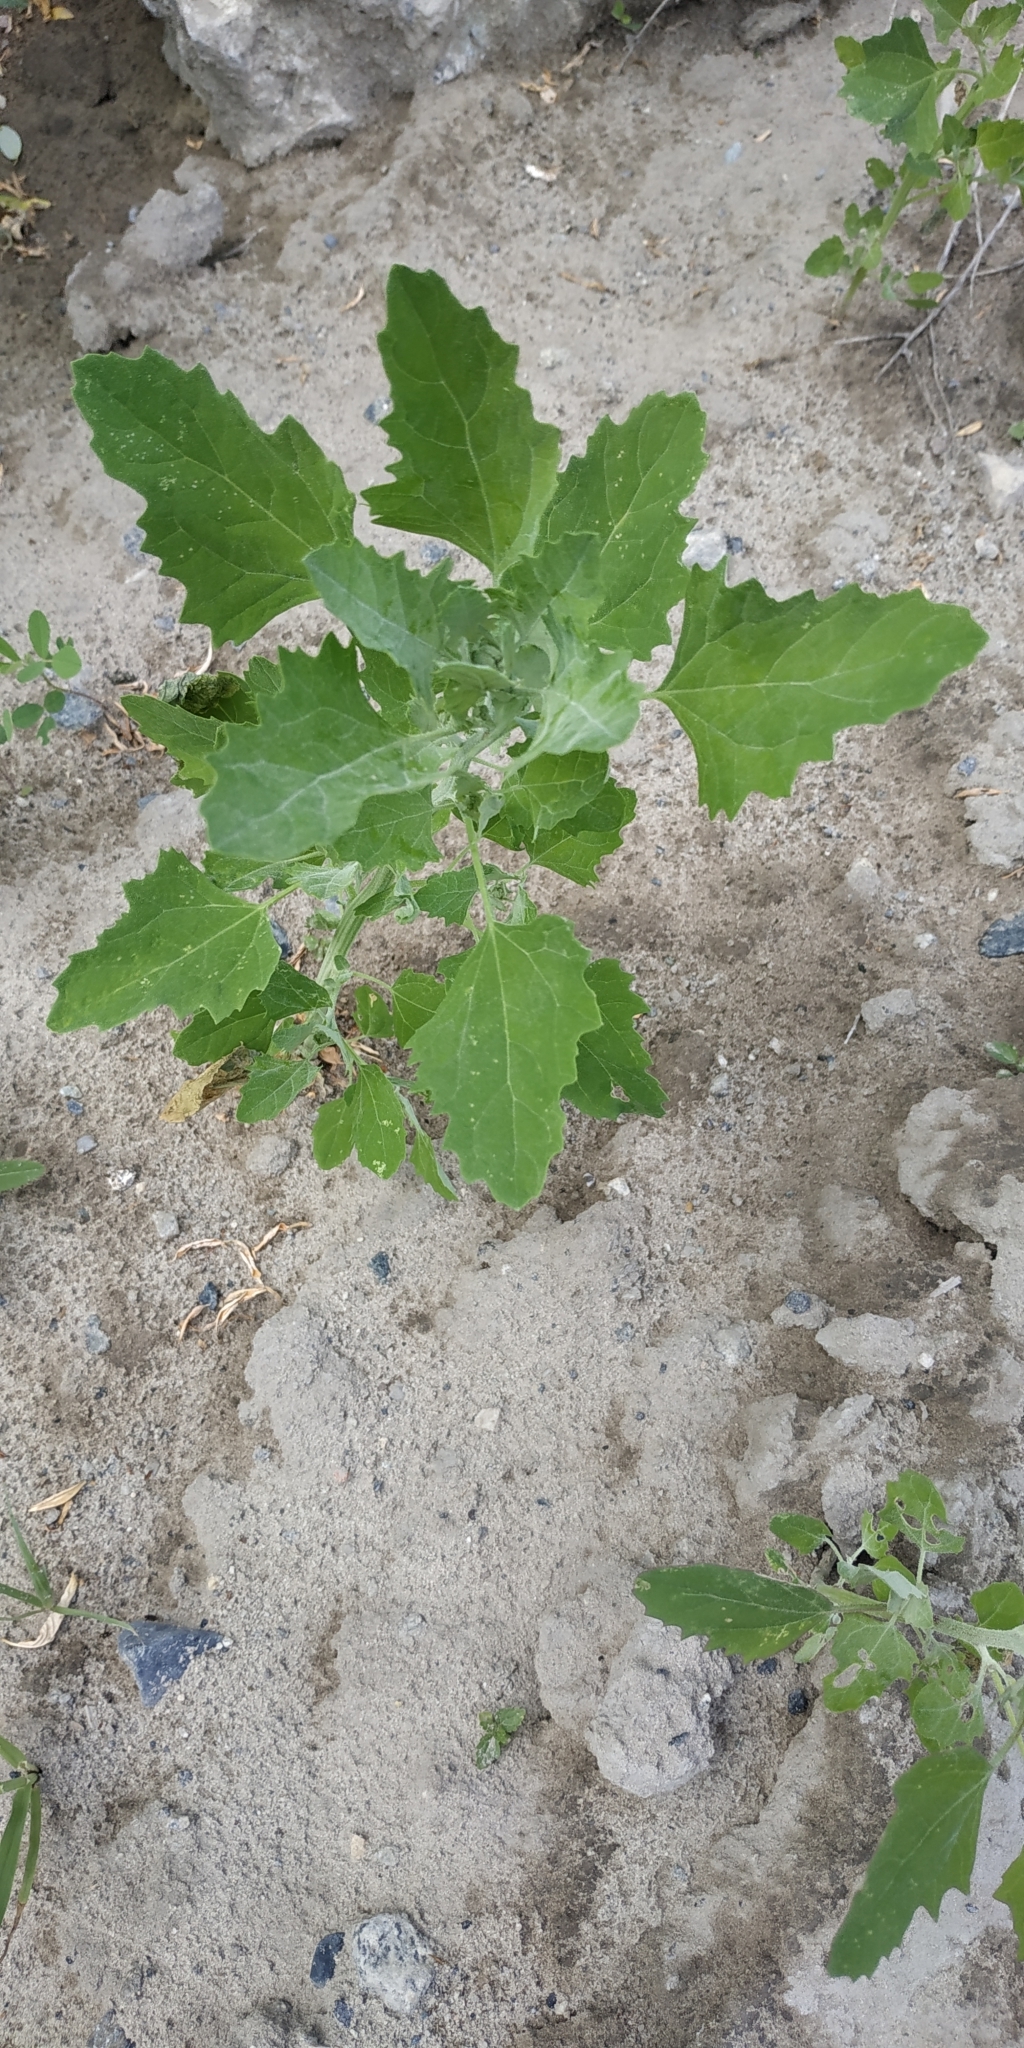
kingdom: Plantae
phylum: Tracheophyta
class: Magnoliopsida
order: Caryophyllales
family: Amaranthaceae
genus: Chenopodium
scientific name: Chenopodium album
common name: Fat-hen
